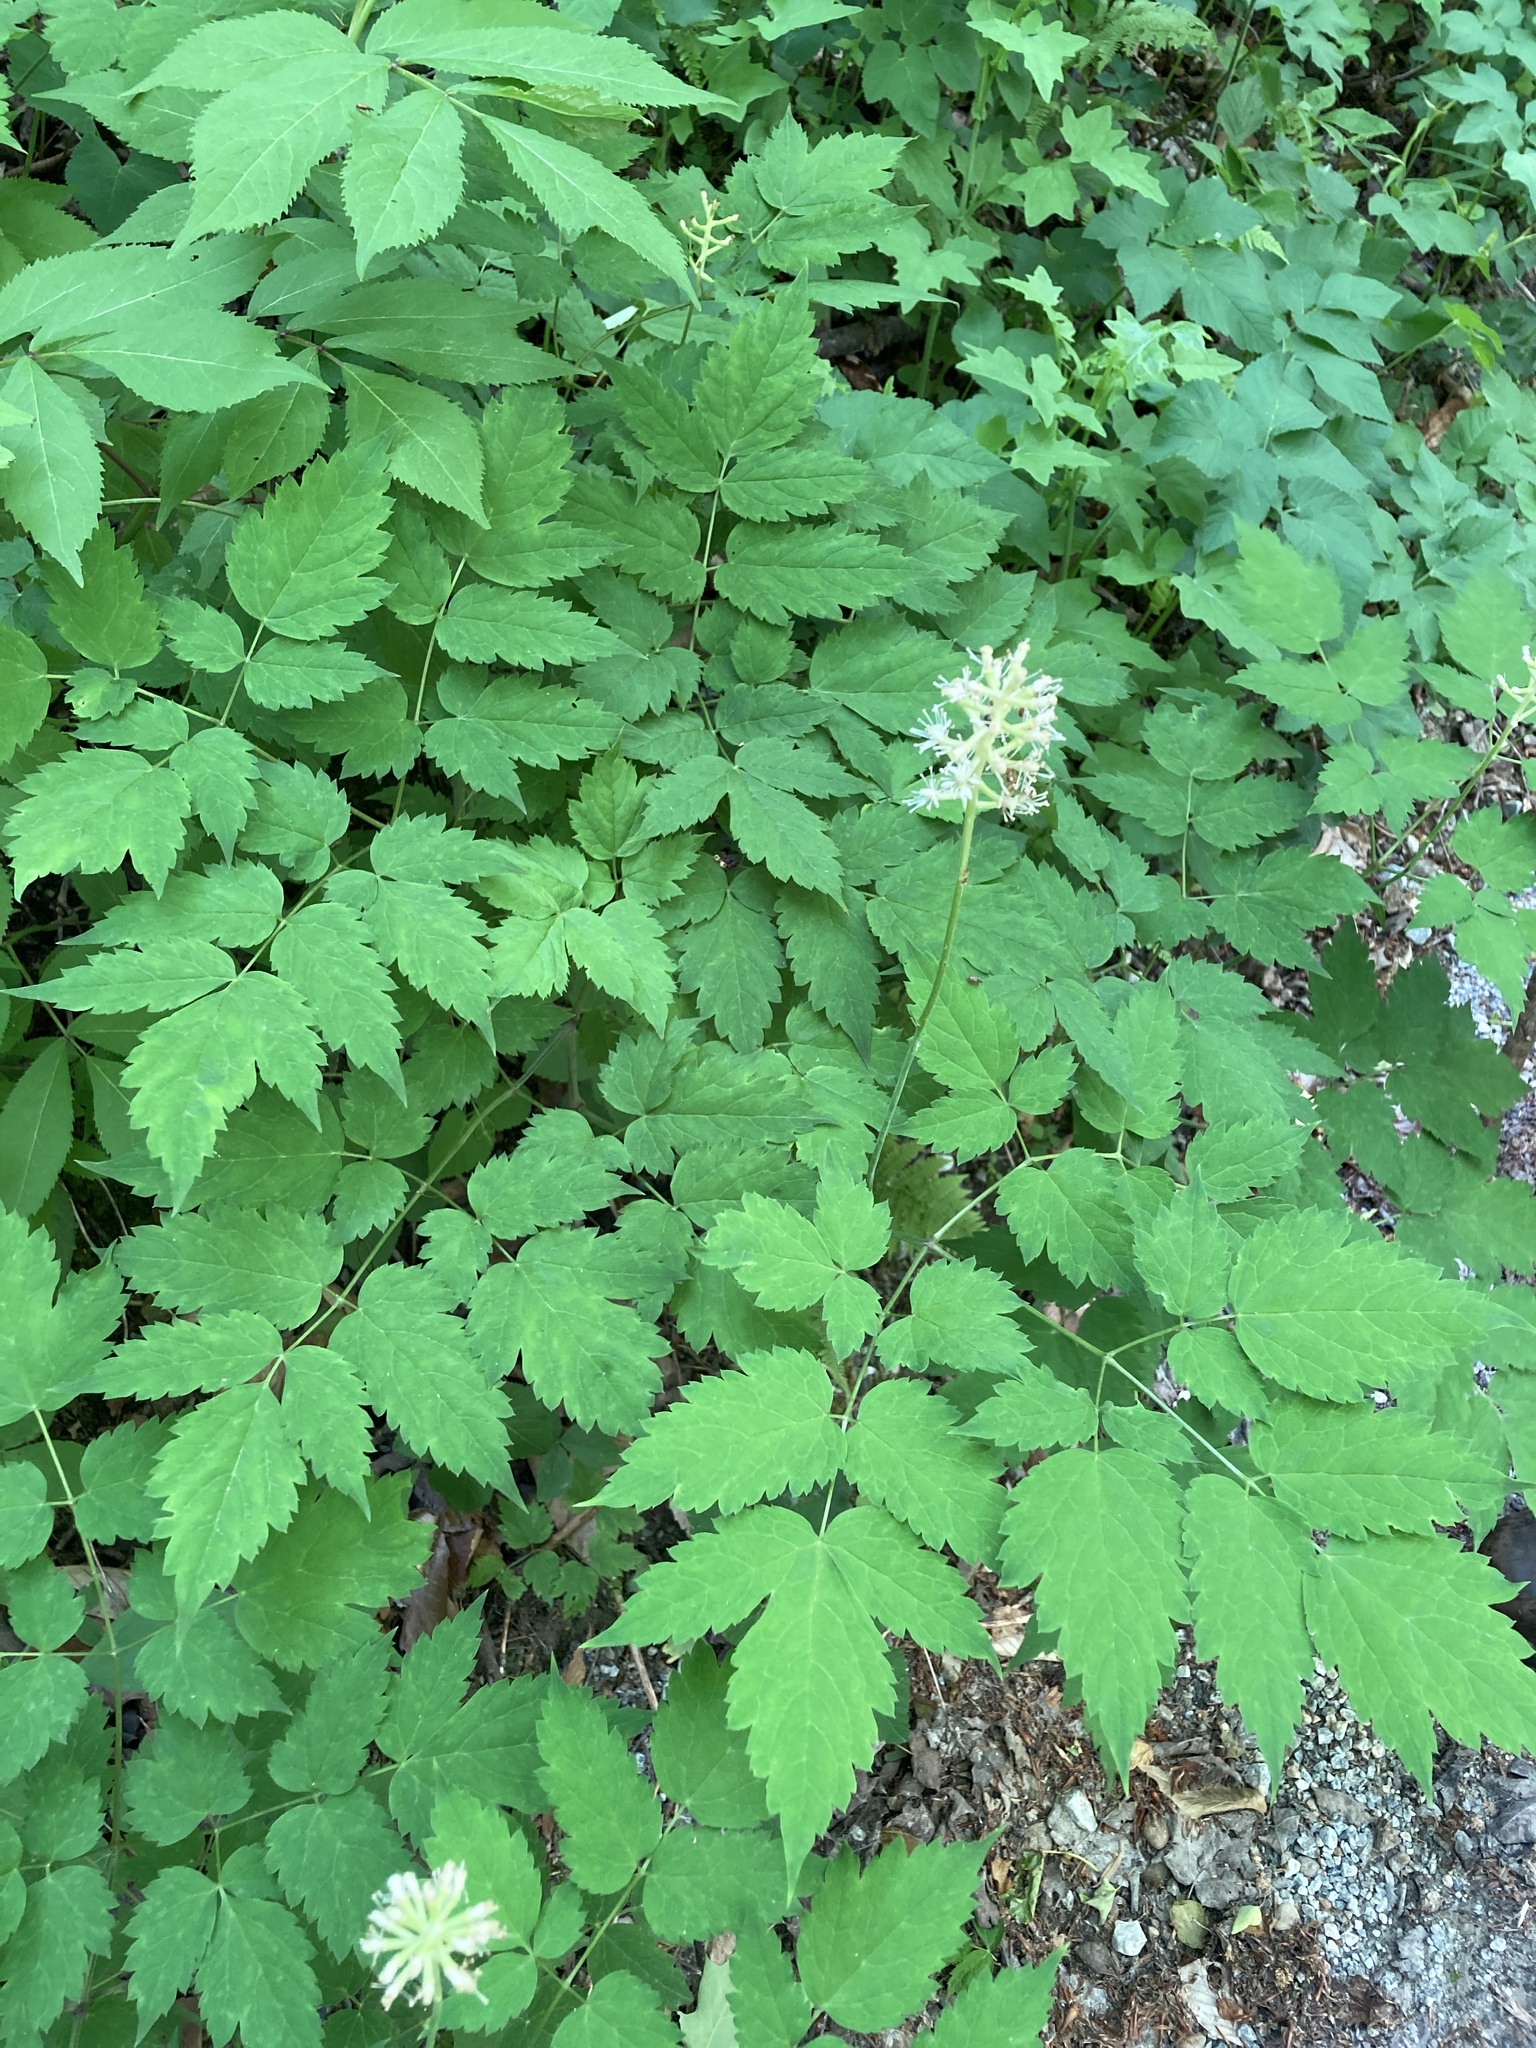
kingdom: Plantae
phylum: Tracheophyta
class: Magnoliopsida
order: Ranunculales
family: Ranunculaceae
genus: Actaea
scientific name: Actaea pachypoda
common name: Doll's-eyes
